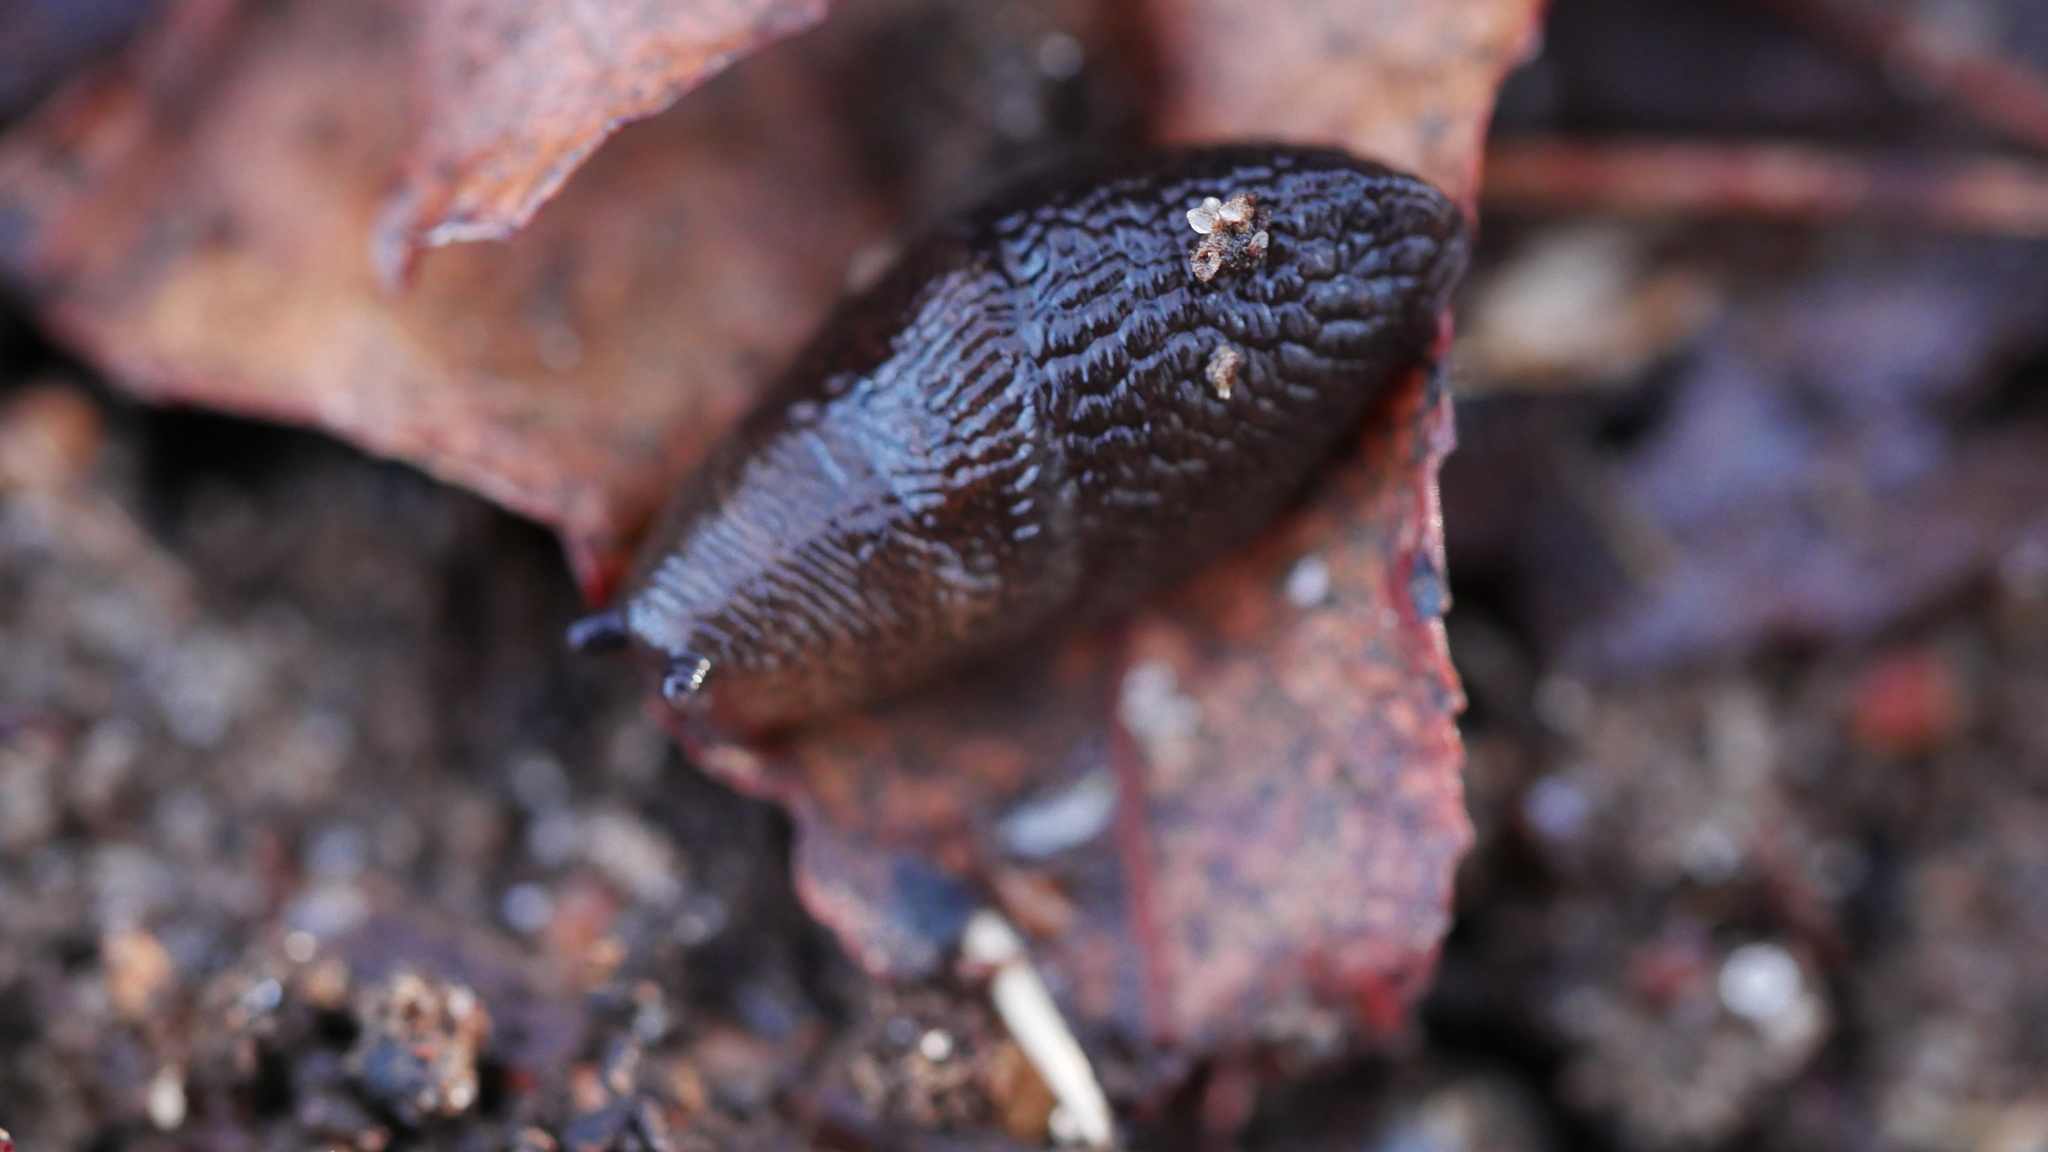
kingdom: Animalia
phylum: Mollusca
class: Gastropoda
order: Stylommatophora
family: Agriolimacidae
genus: Deroceras
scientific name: Deroceras laeve
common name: Marsh slug
